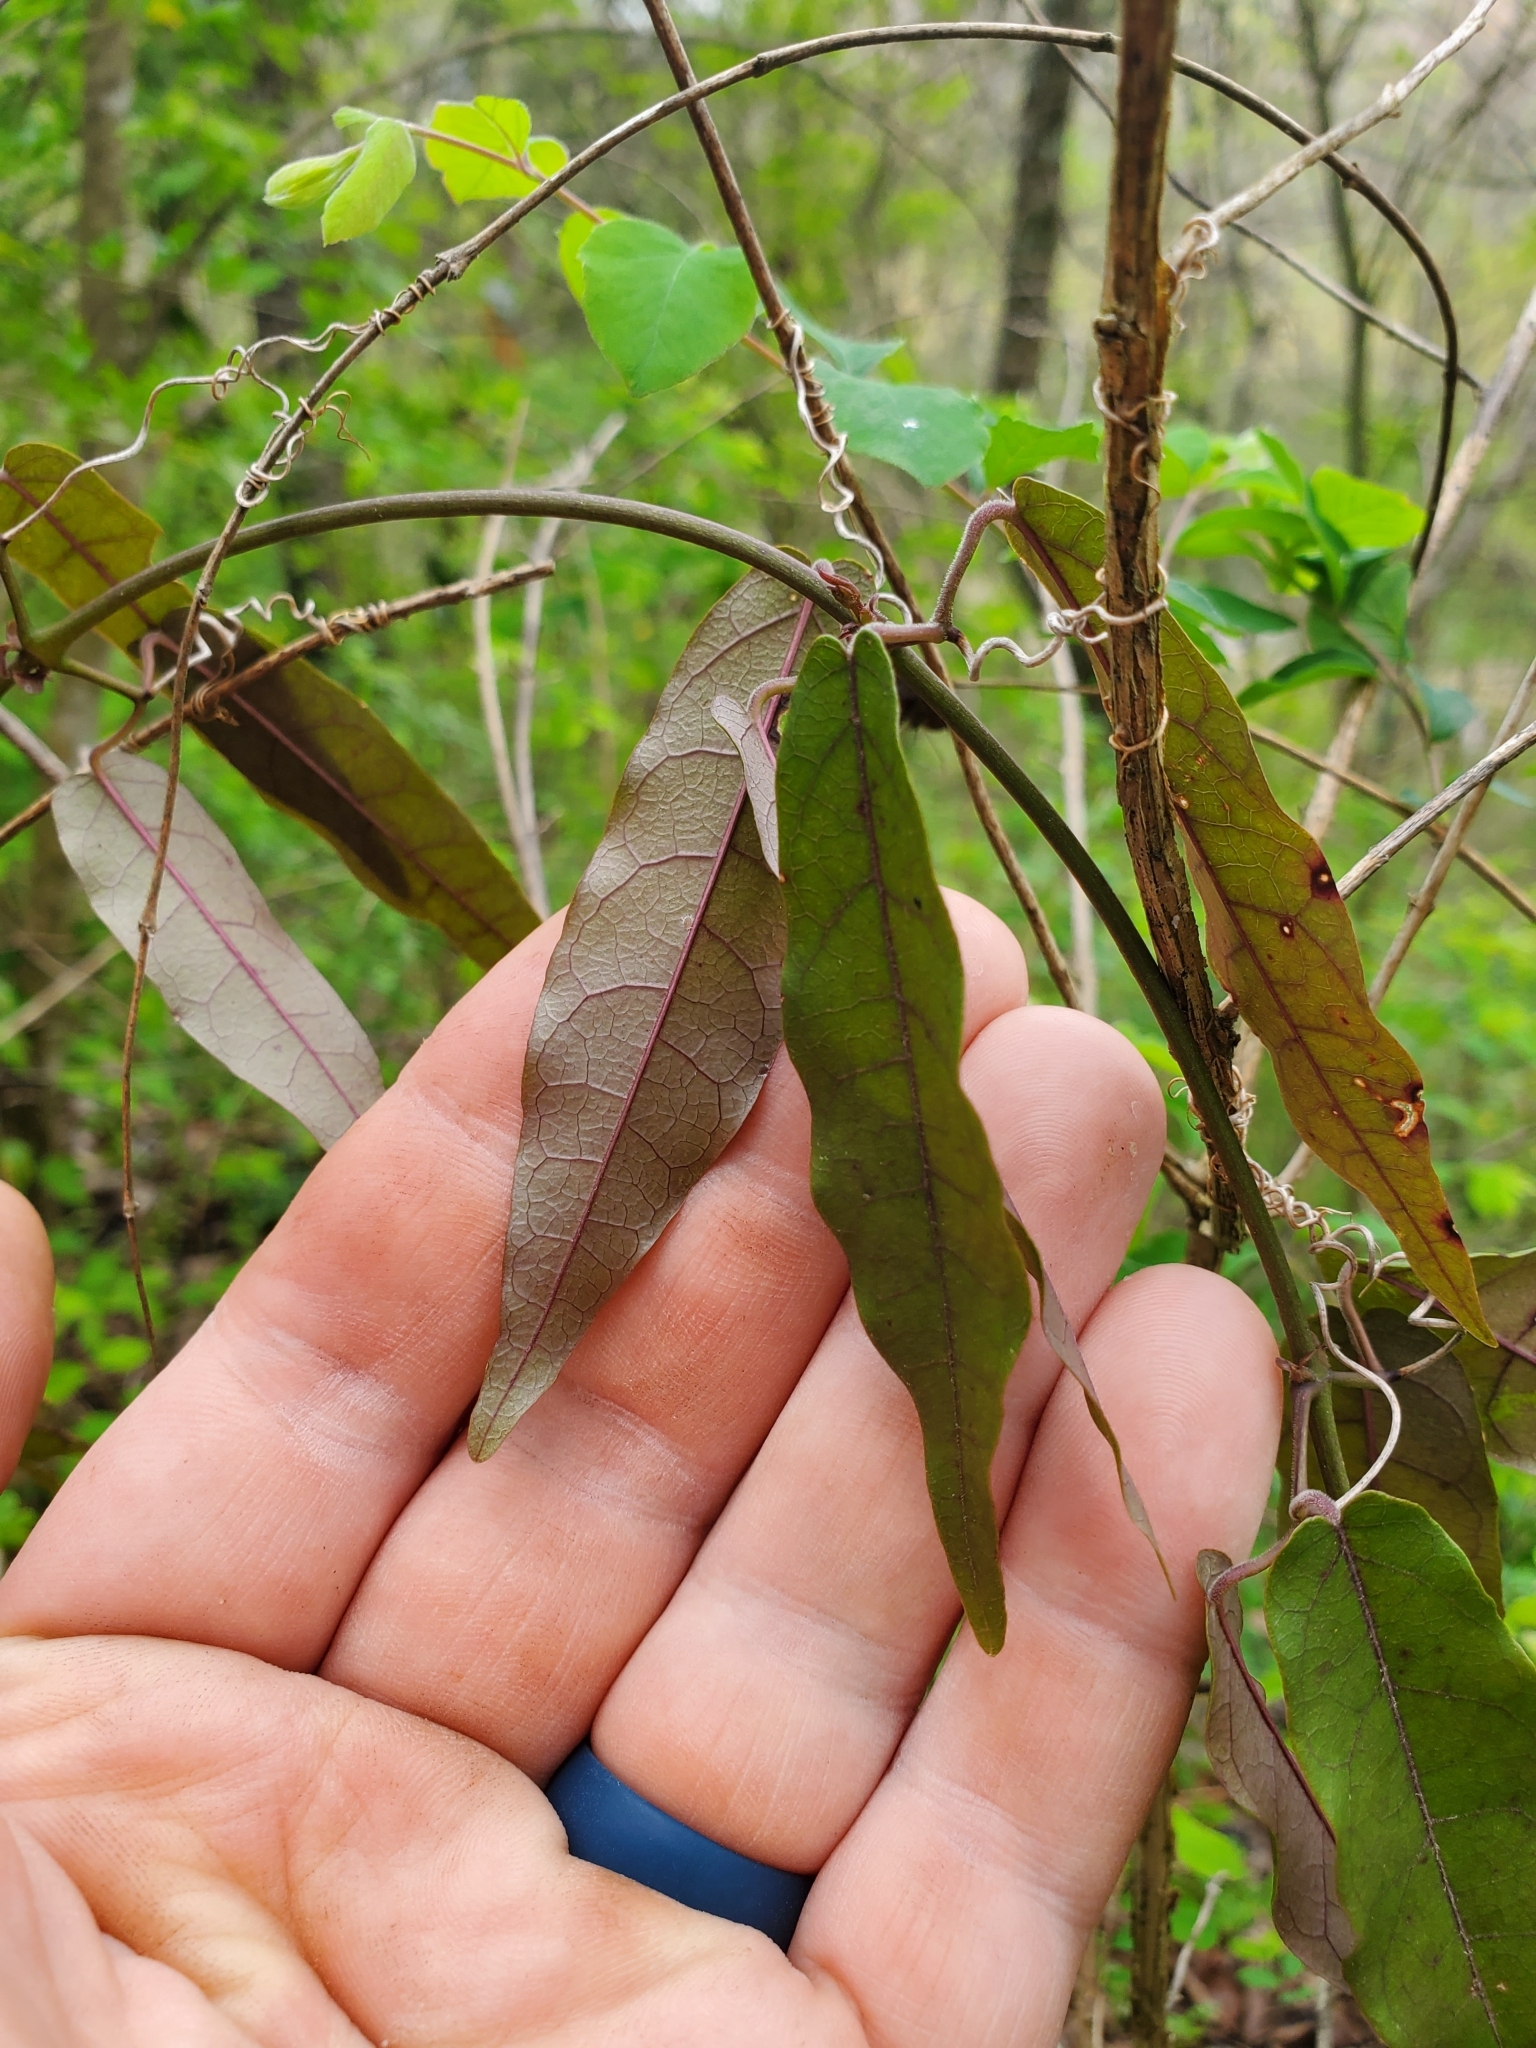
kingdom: Plantae
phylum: Tracheophyta
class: Magnoliopsida
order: Lamiales
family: Bignoniaceae
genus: Bignonia
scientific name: Bignonia capreolata
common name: Crossvine
